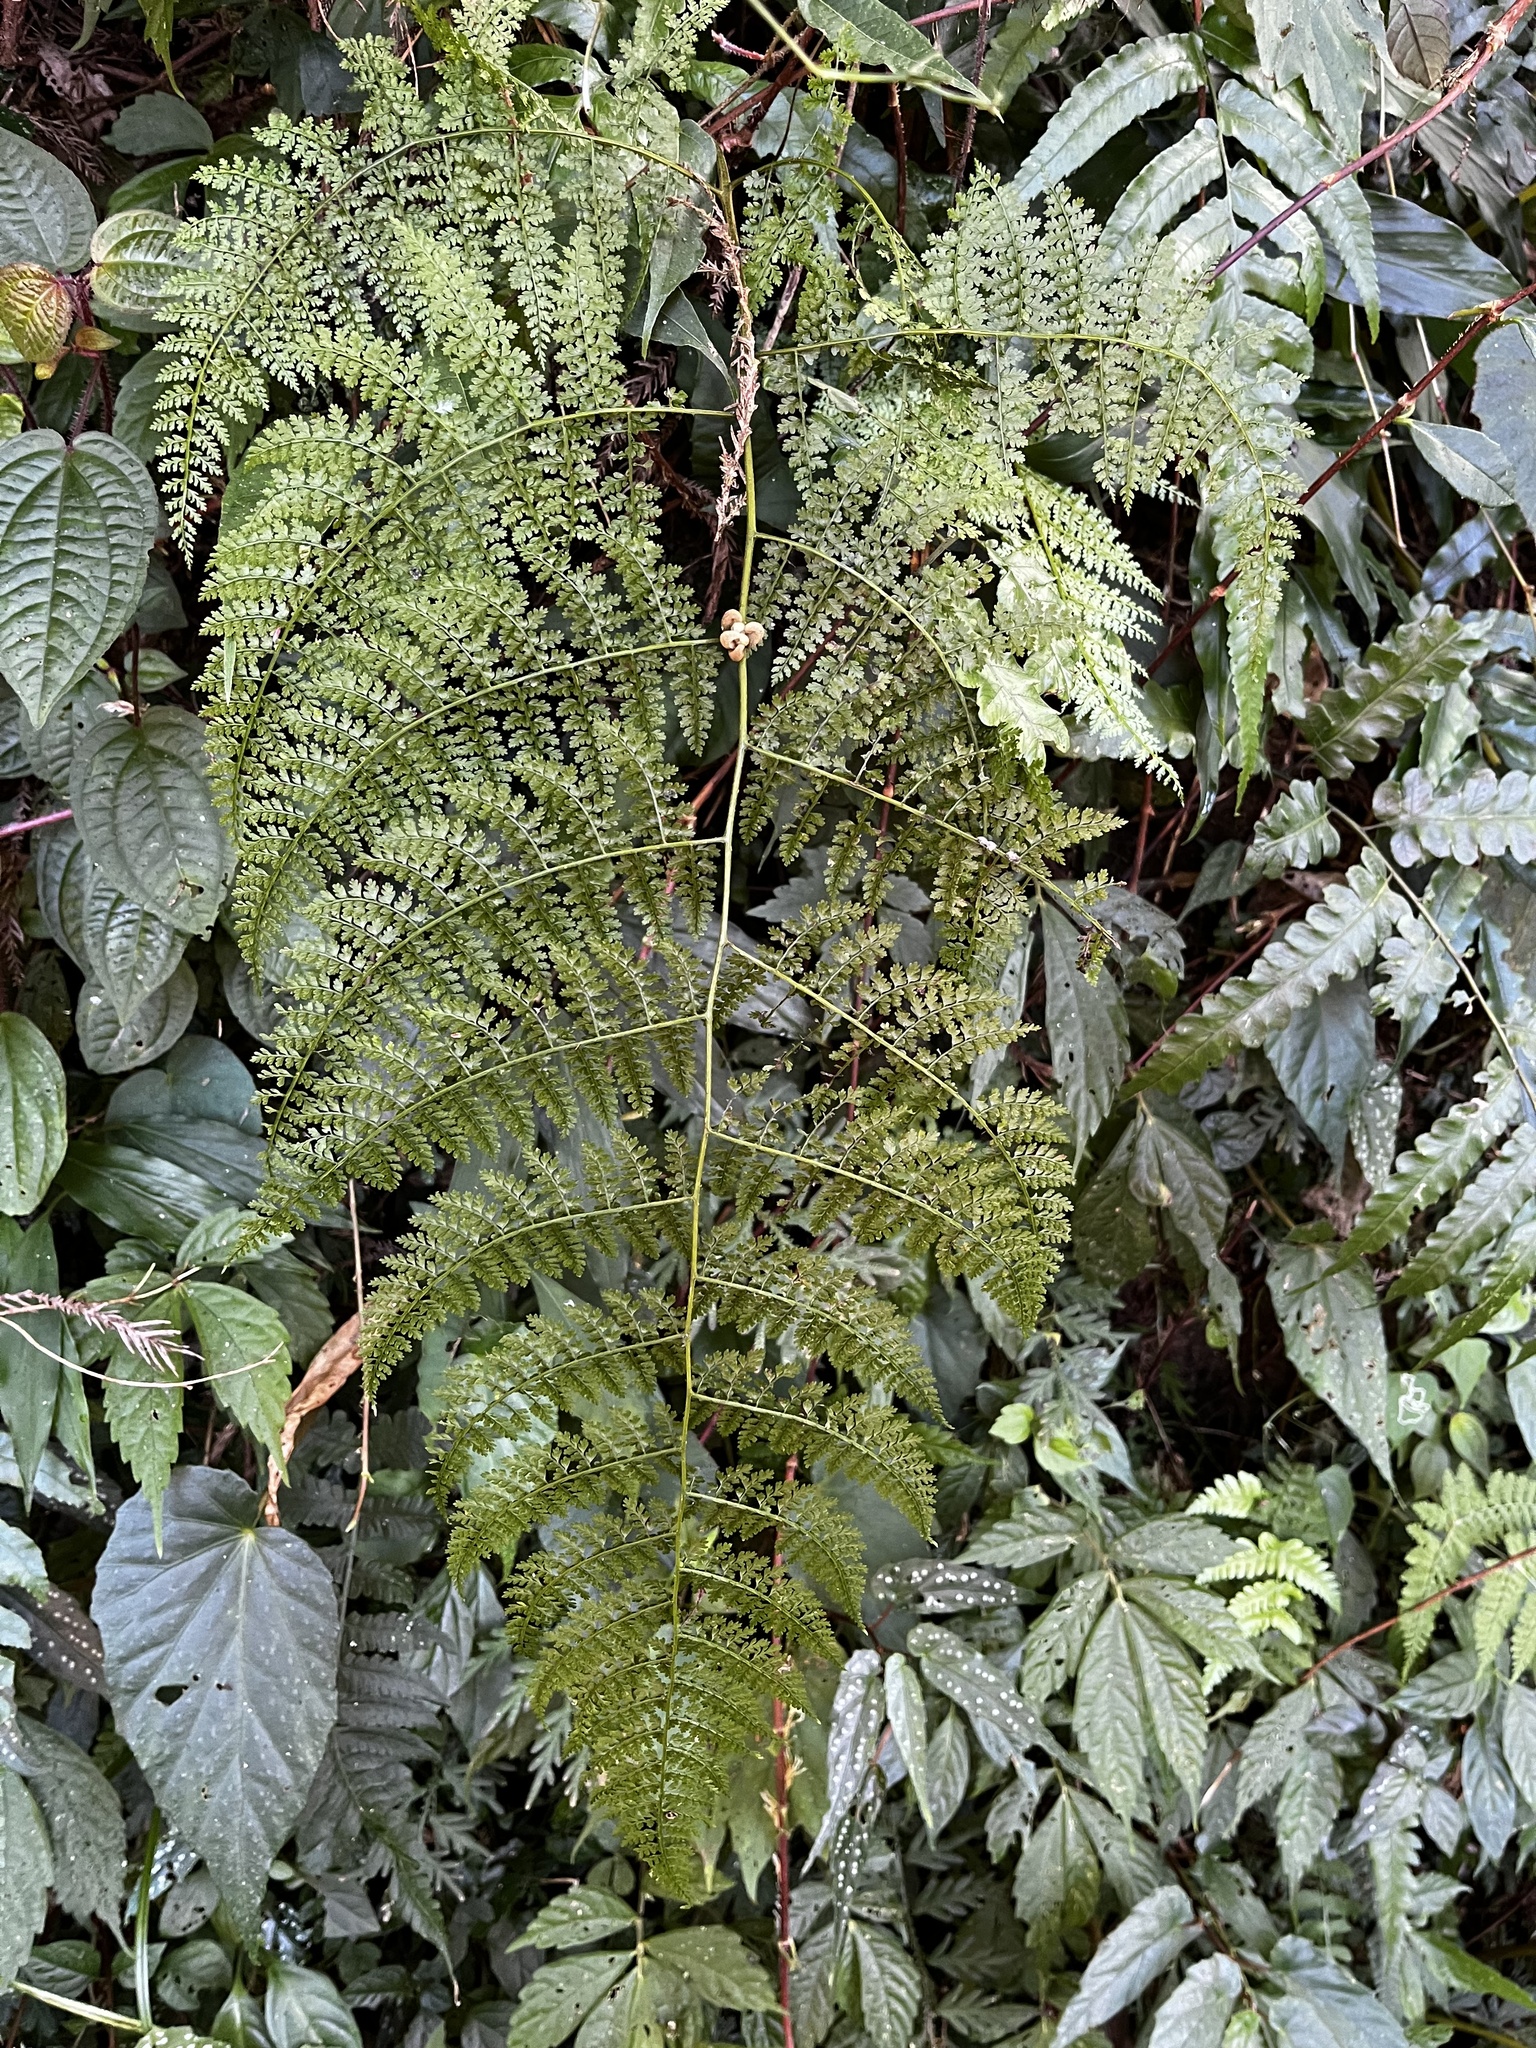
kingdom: Plantae
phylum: Tracheophyta
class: Polypodiopsida
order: Polypodiales
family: Dennstaedtiaceae
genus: Monachosorum
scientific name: Monachosorum henryi
